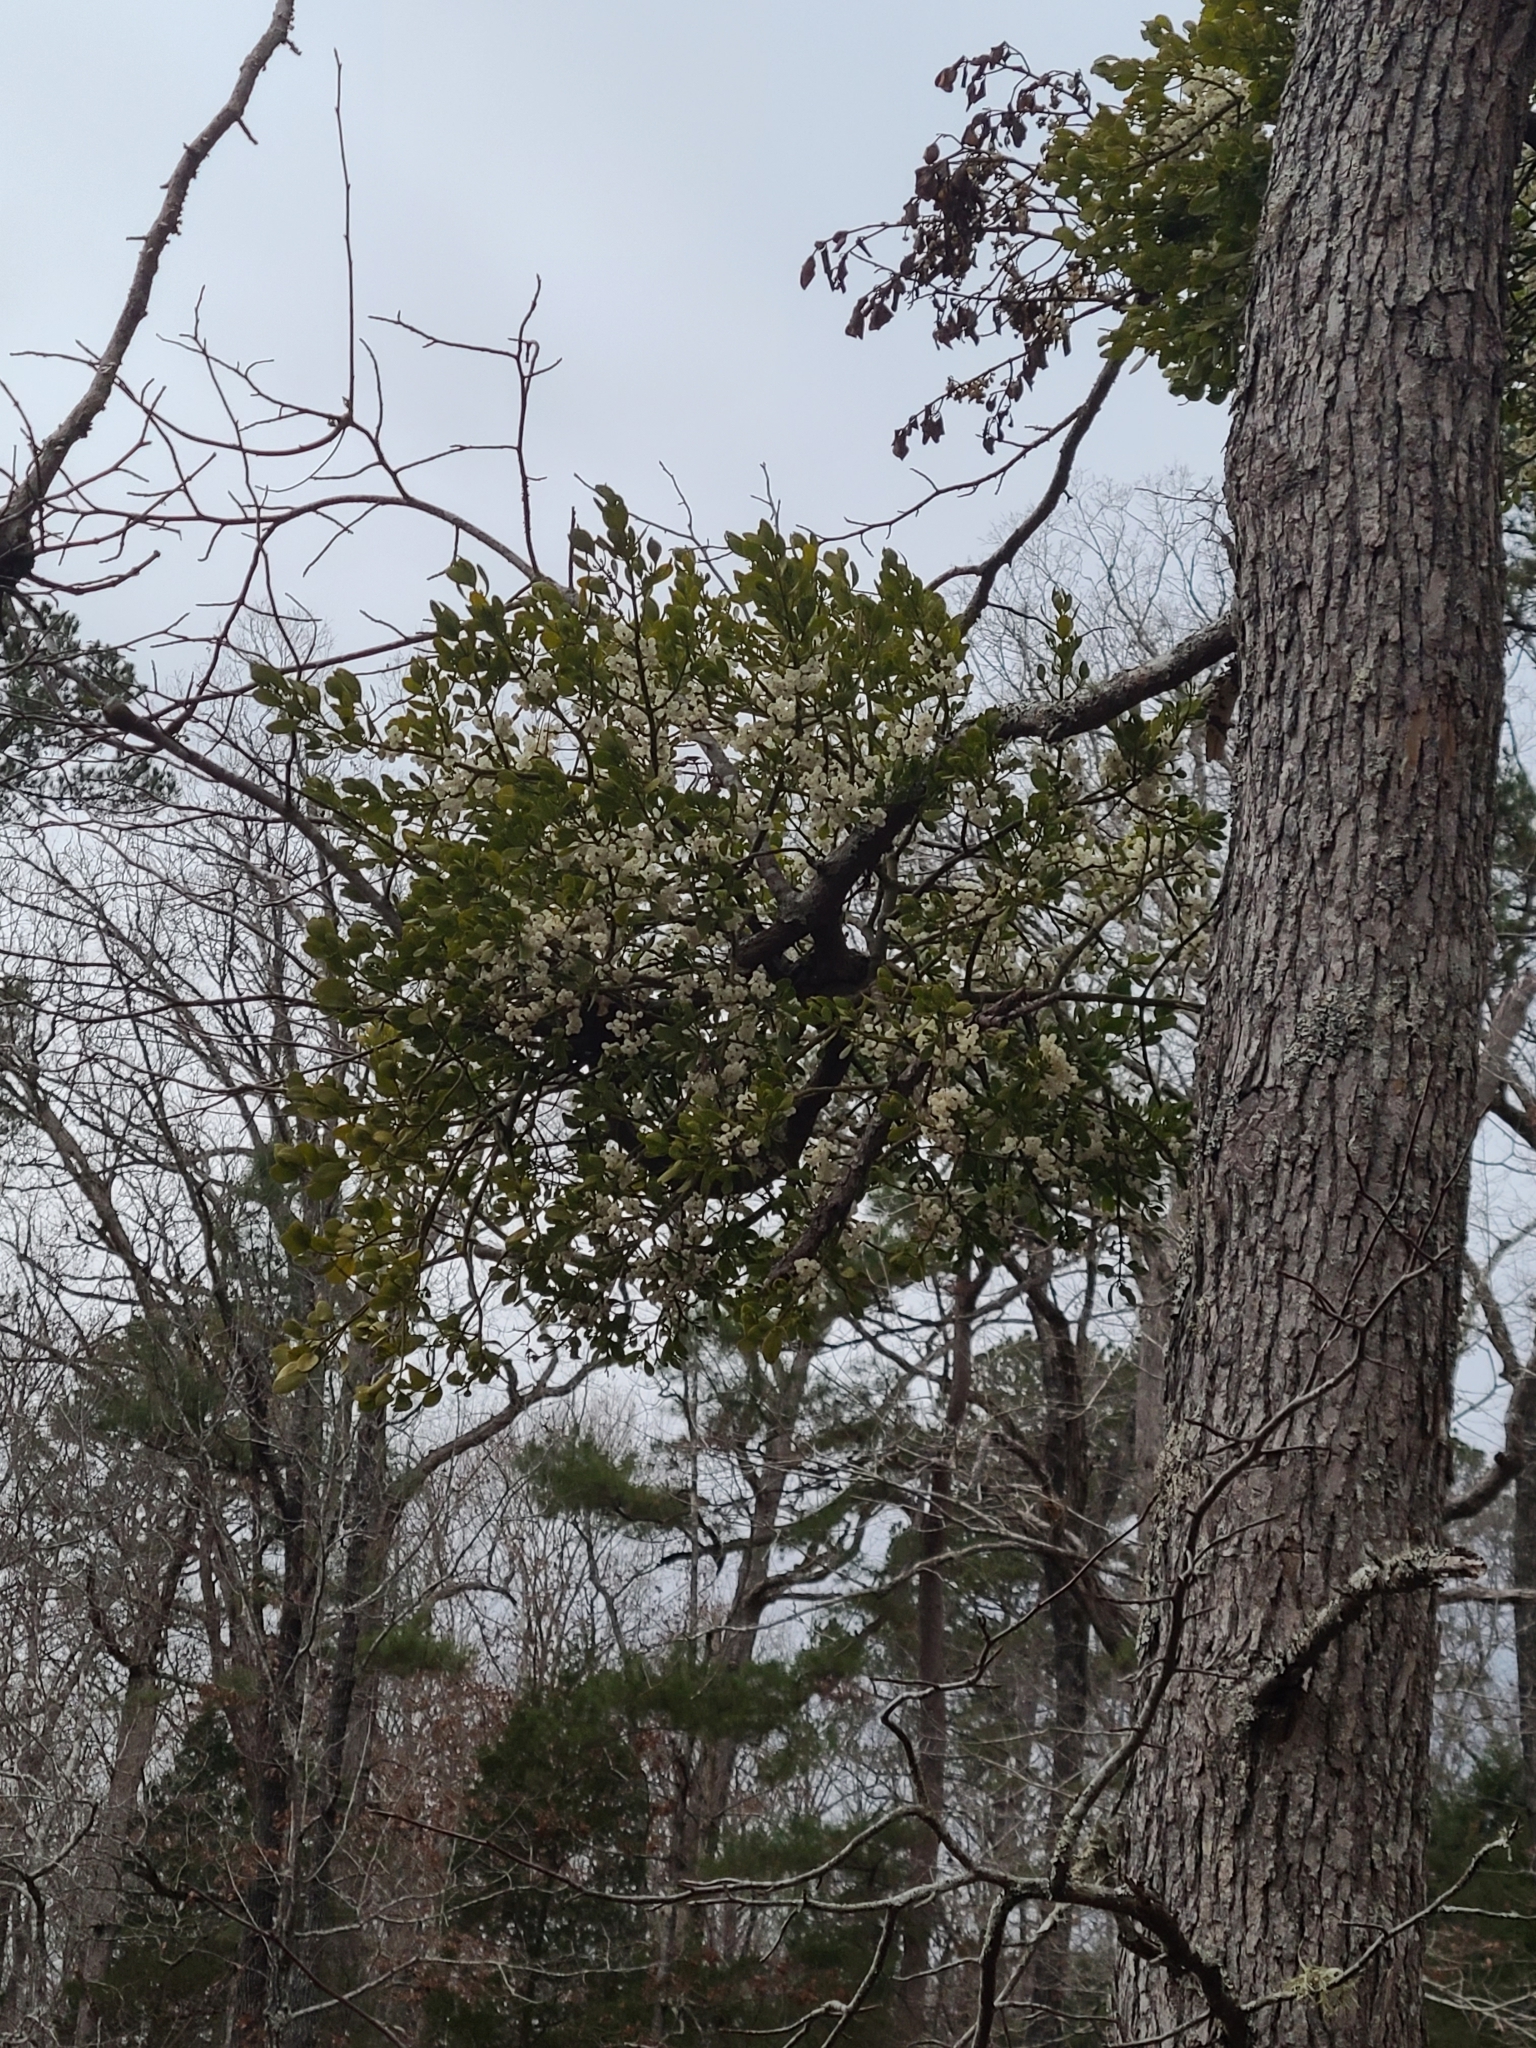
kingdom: Plantae
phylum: Tracheophyta
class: Magnoliopsida
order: Santalales
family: Viscaceae
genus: Phoradendron
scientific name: Phoradendron leucarpum
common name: Pacific mistletoe
